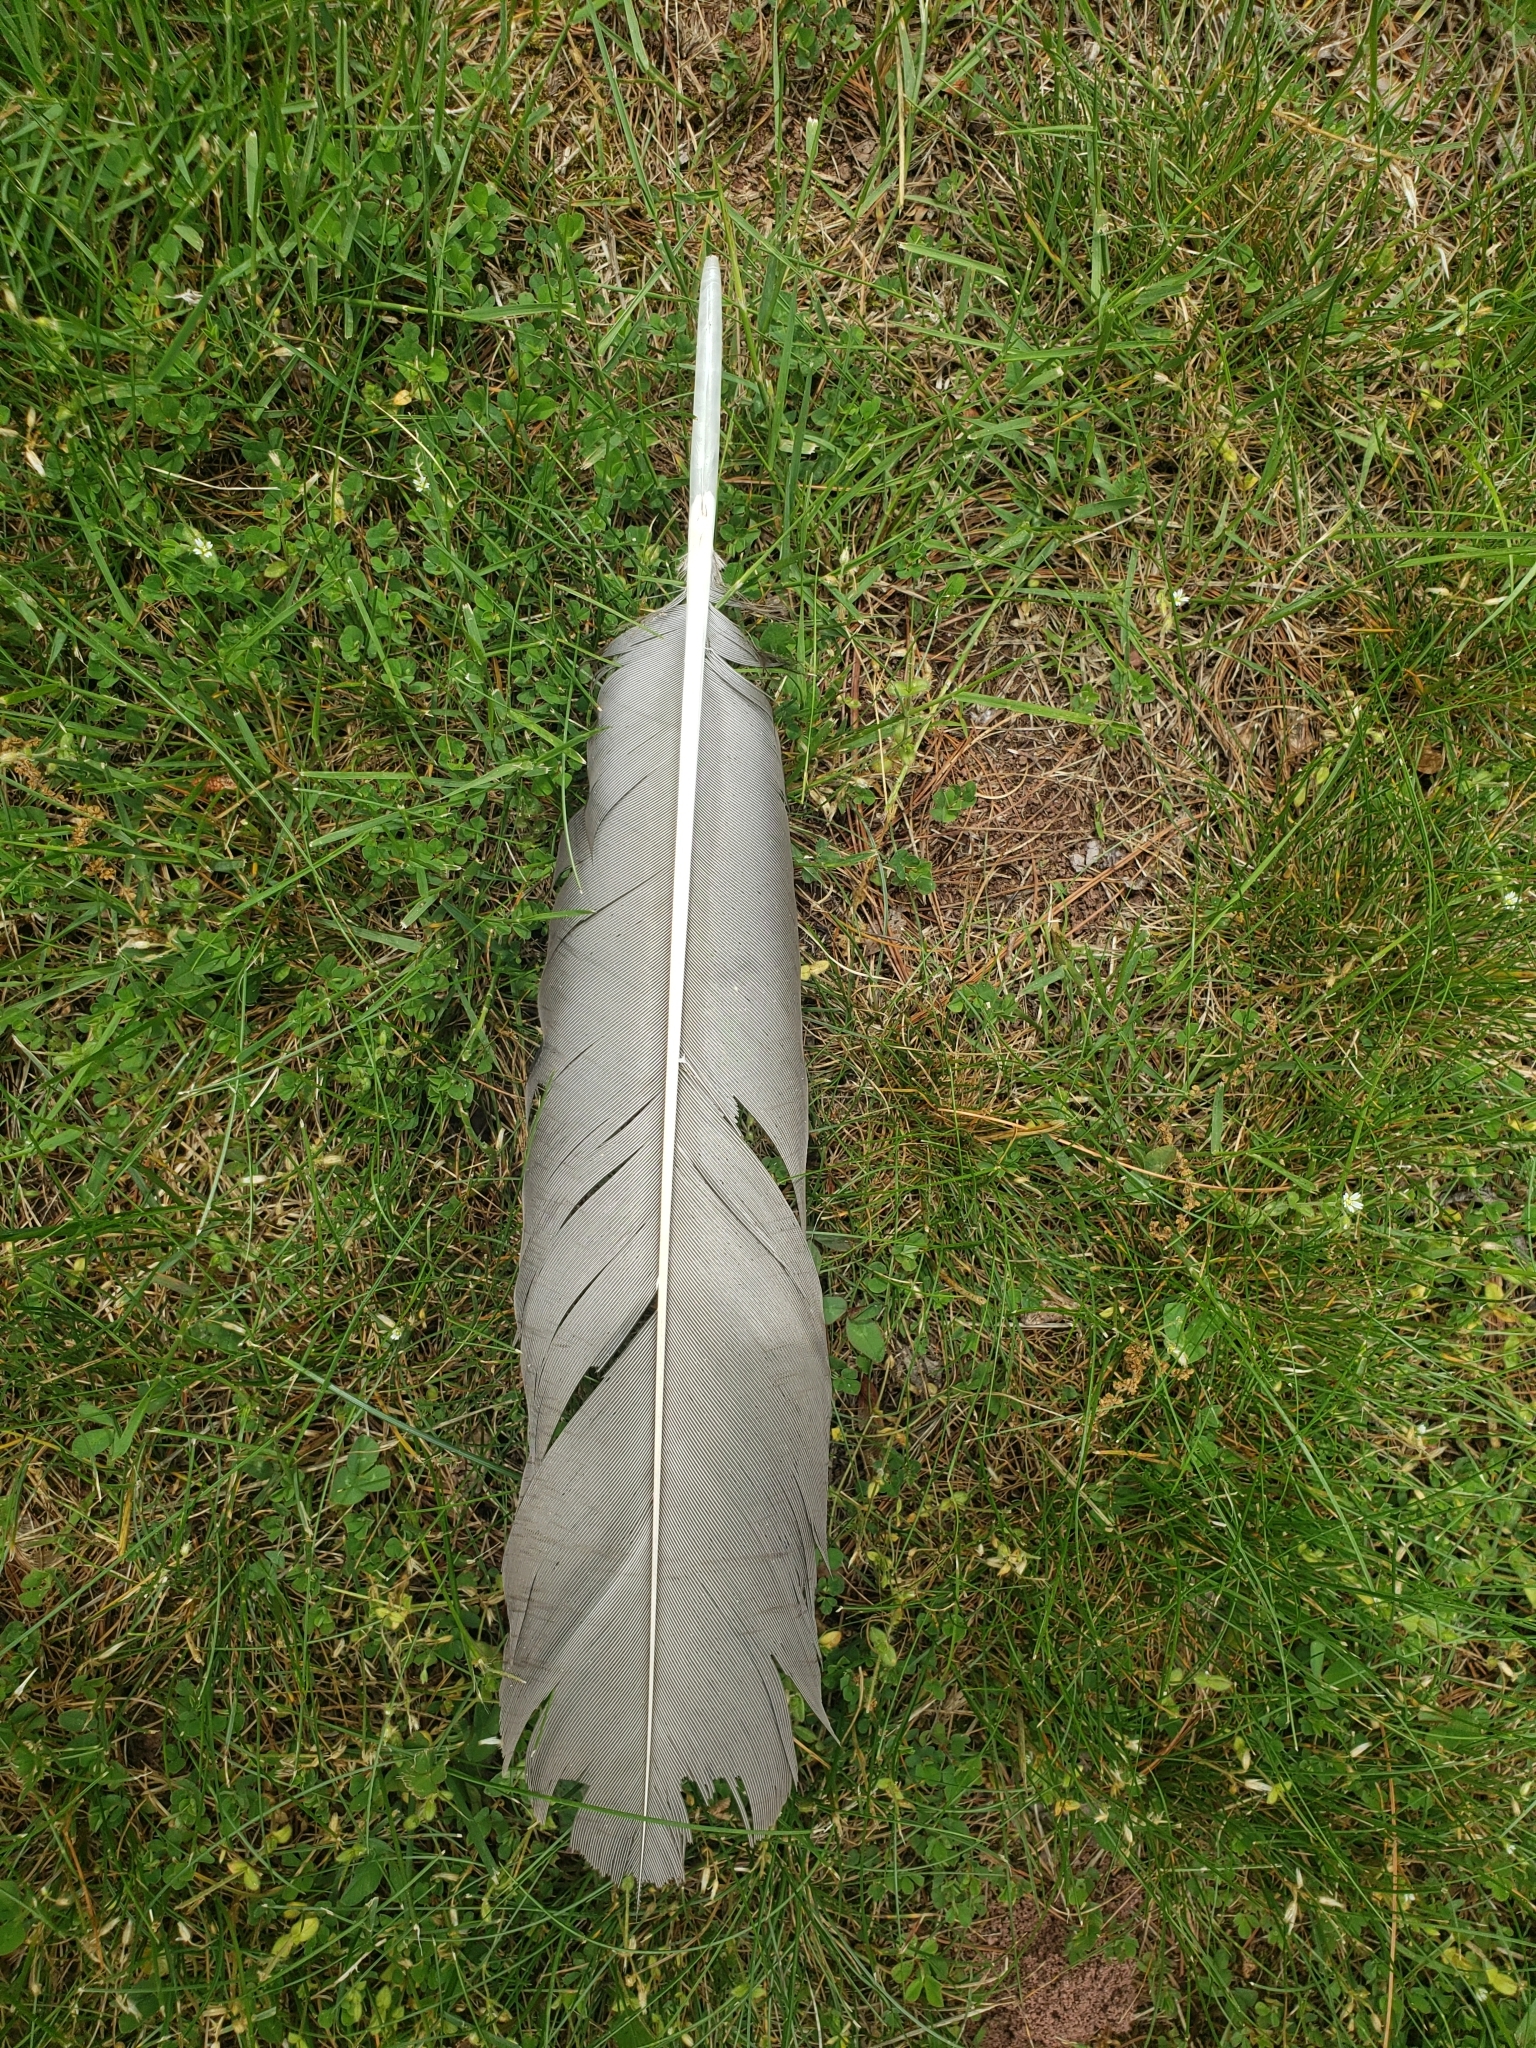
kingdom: Animalia
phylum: Chordata
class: Aves
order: Accipitriformes
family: Cathartidae
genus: Cathartes
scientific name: Cathartes aura
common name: Turkey vulture
